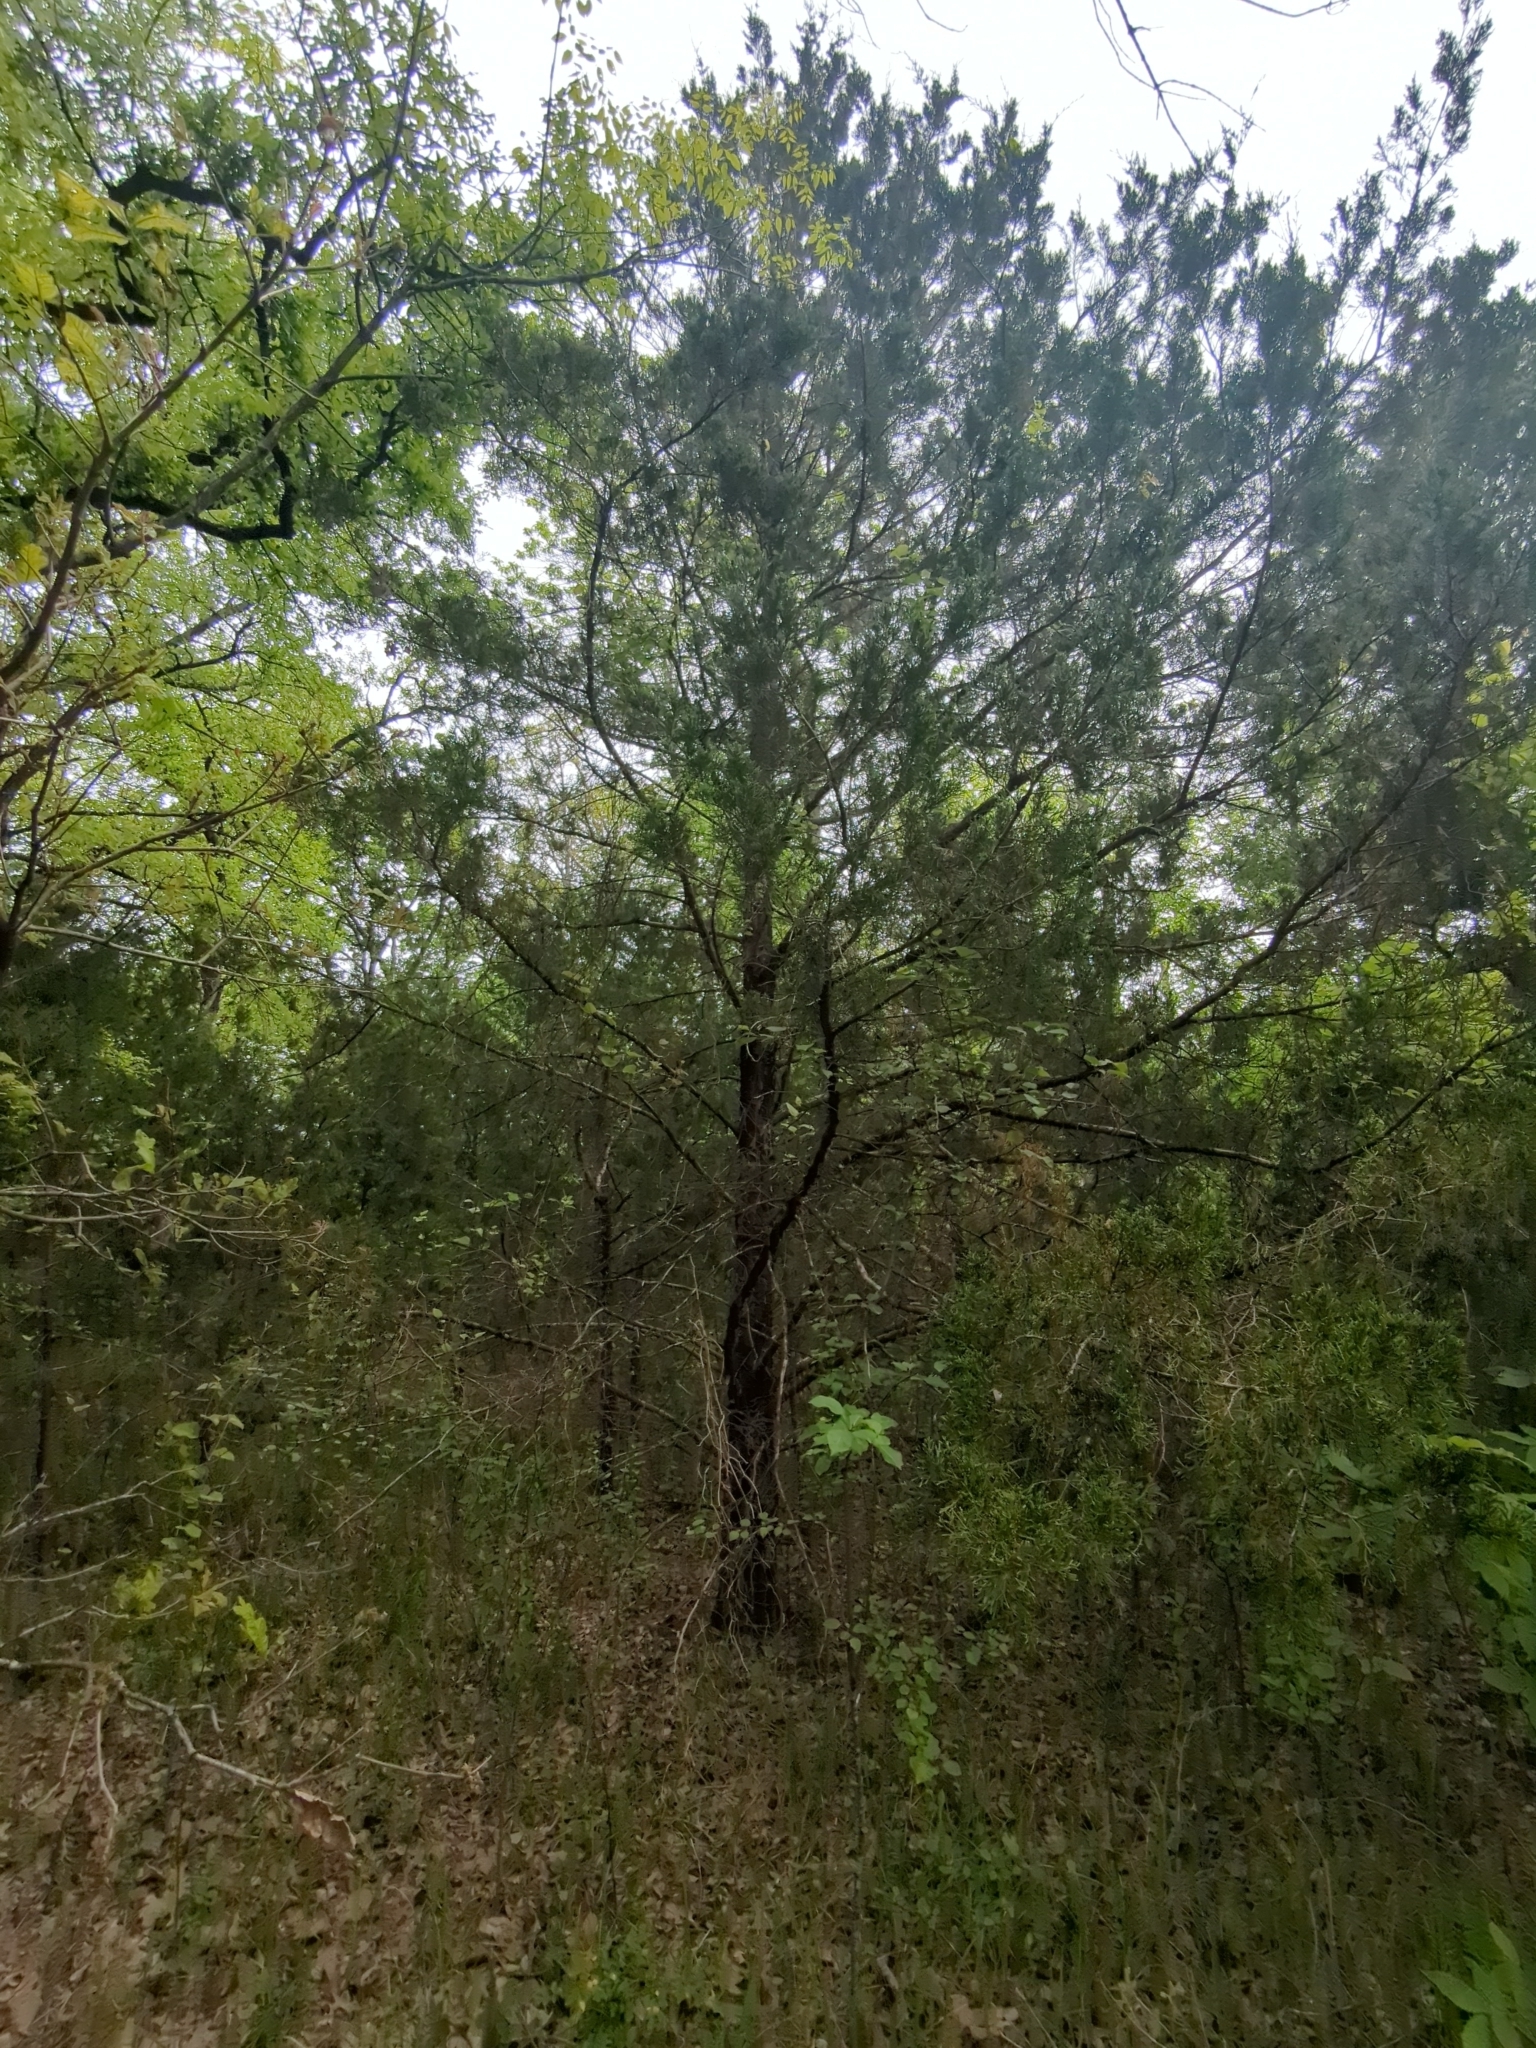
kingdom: Plantae
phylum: Tracheophyta
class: Pinopsida
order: Pinales
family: Cupressaceae
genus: Juniperus
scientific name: Juniperus virginiana
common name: Red juniper
